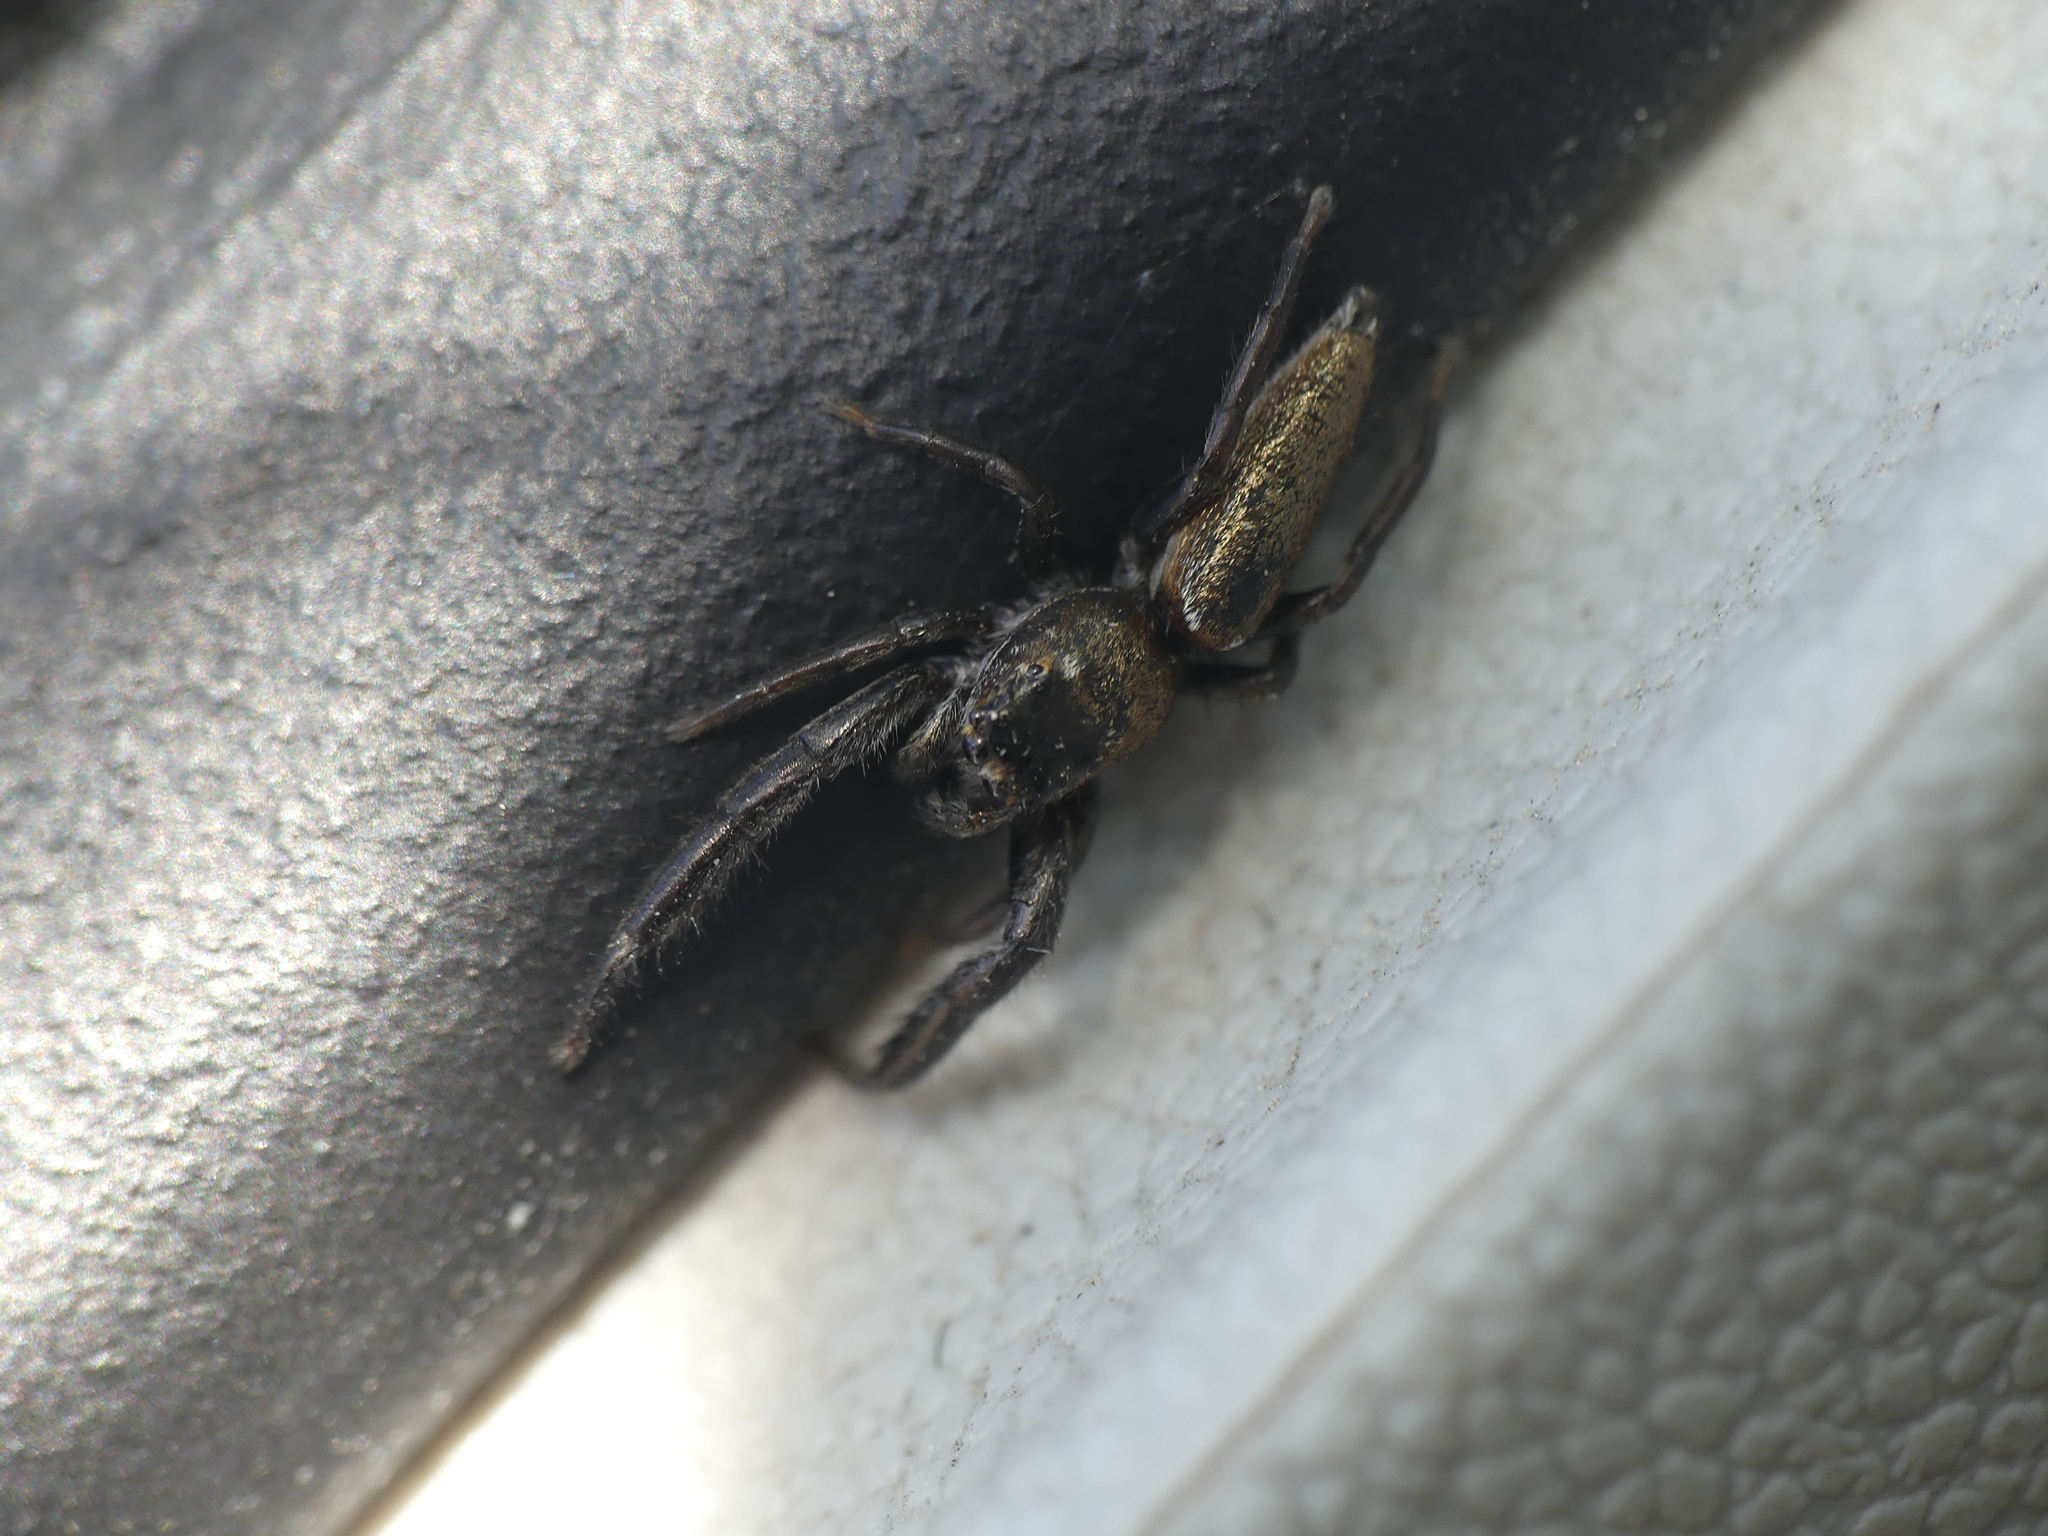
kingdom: Animalia
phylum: Arthropoda
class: Arachnida
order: Araneae
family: Salticidae
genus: Mendoza
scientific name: Mendoza canestrinii
